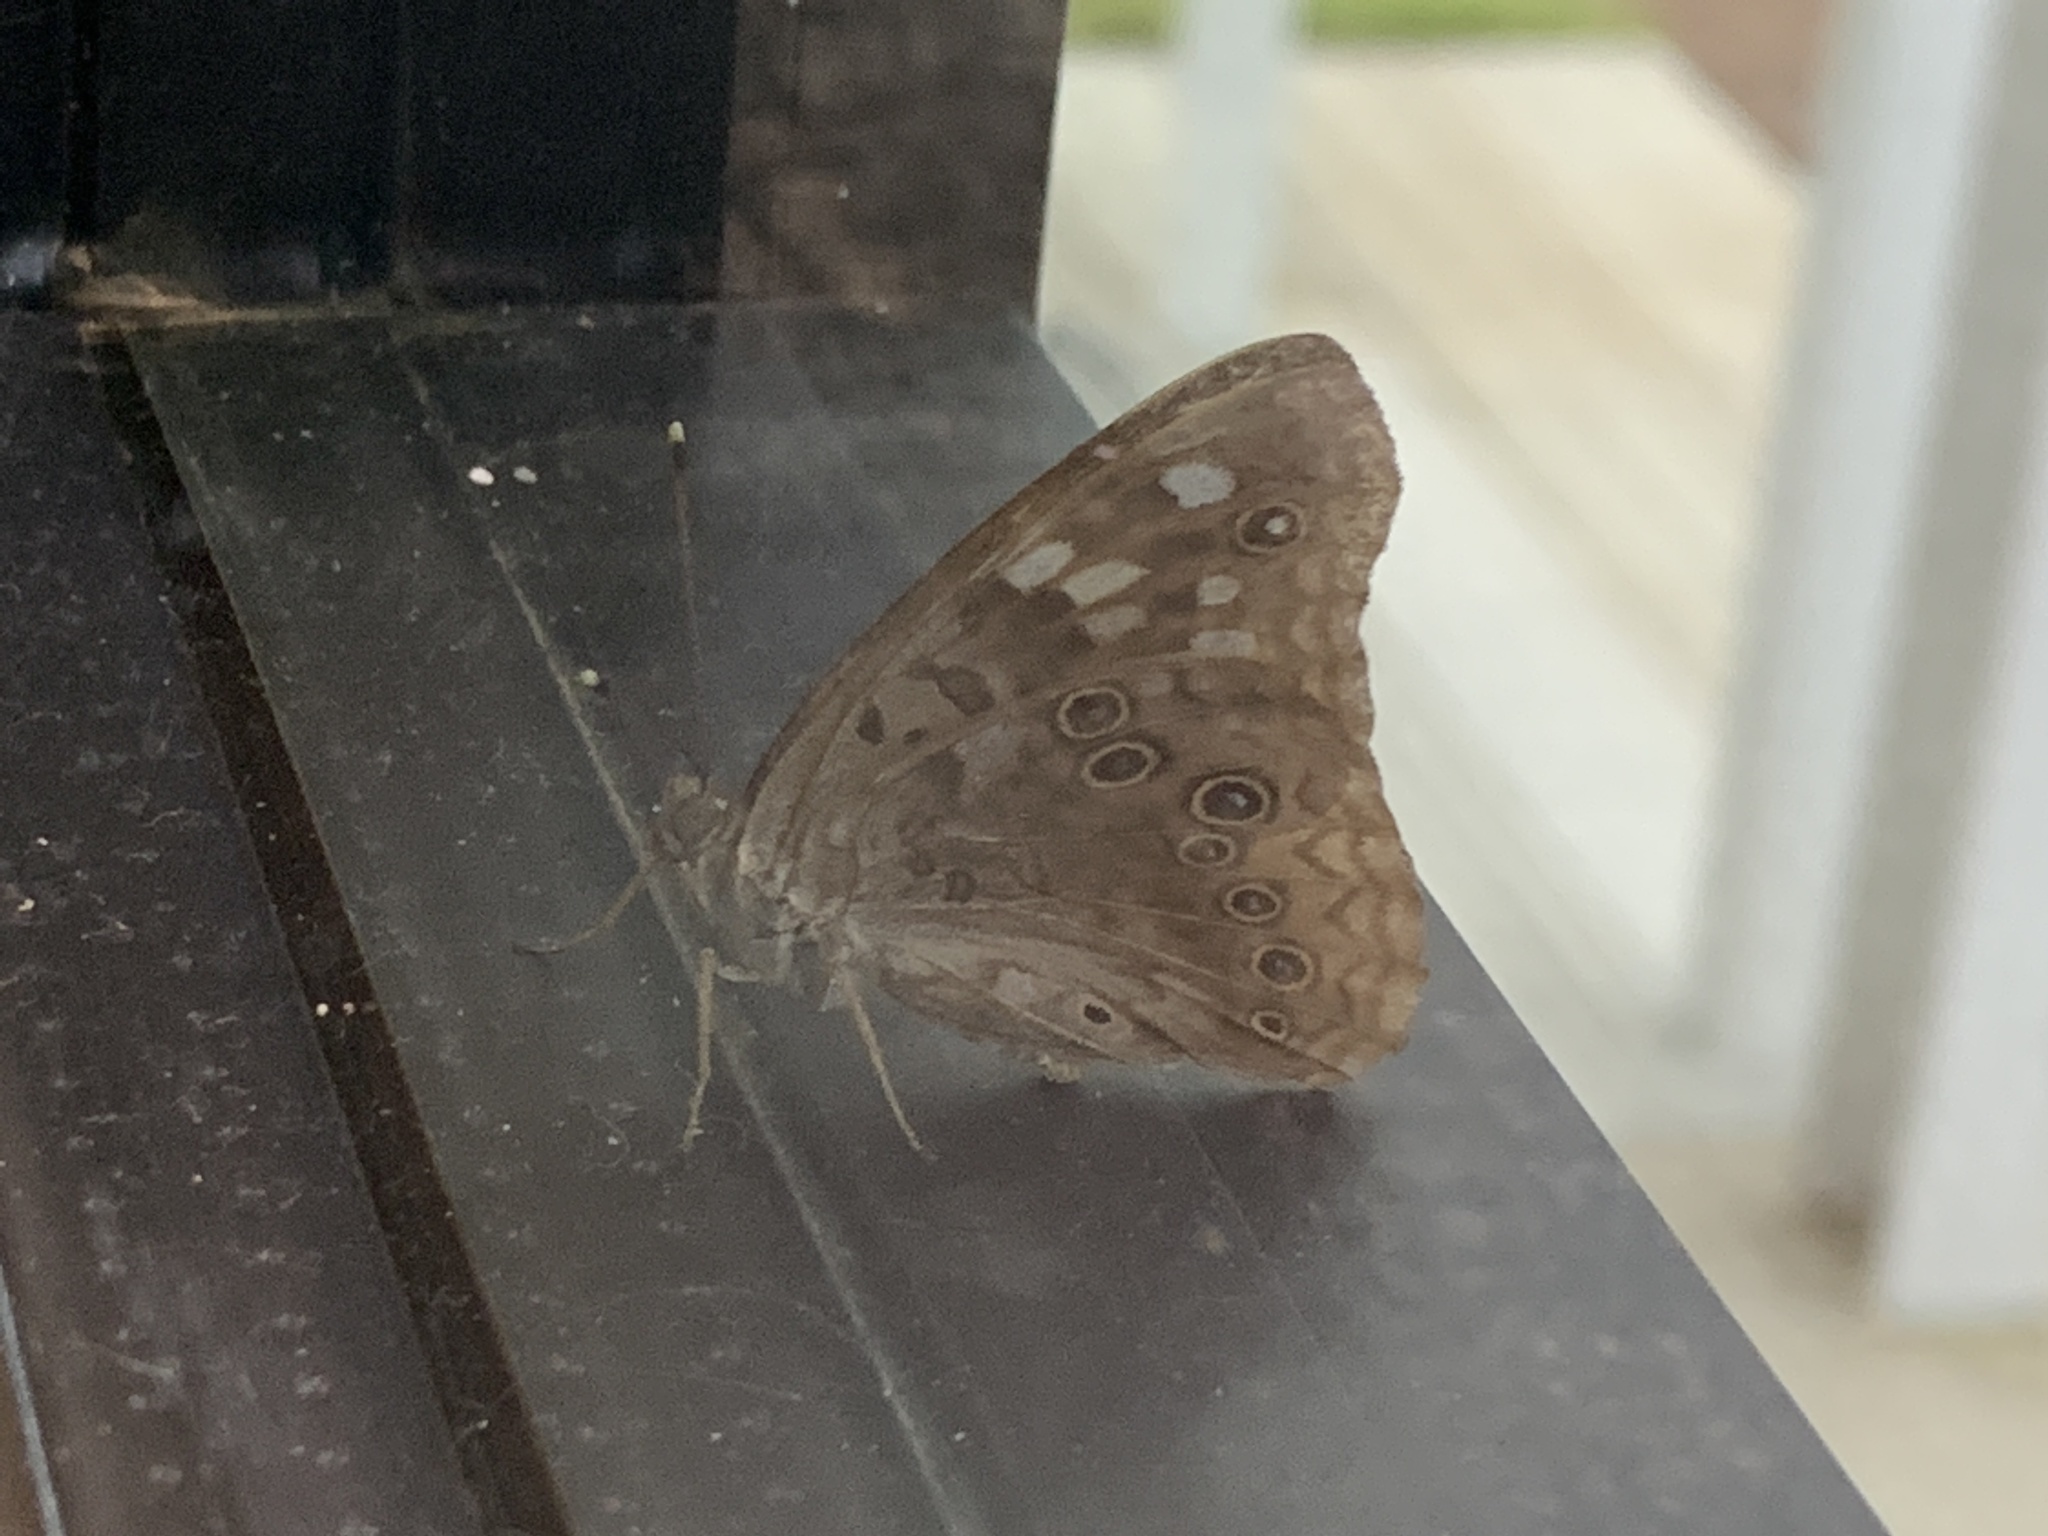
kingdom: Animalia
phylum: Arthropoda
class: Insecta
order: Lepidoptera
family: Nymphalidae
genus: Asterocampa
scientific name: Asterocampa celtis
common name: Hackberry emperor
